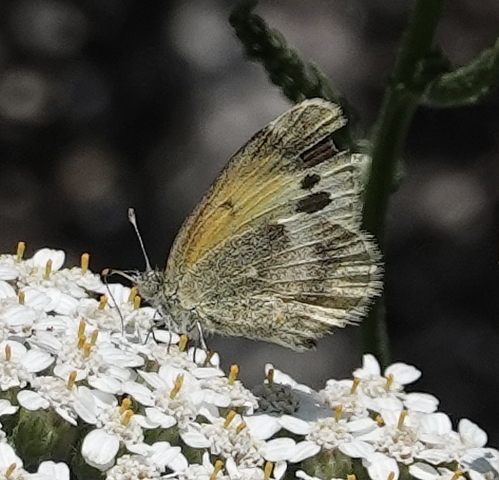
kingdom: Animalia
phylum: Arthropoda
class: Insecta
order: Lepidoptera
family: Pieridae
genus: Nathalis
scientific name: Nathalis iole
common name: Dainty sulphur
